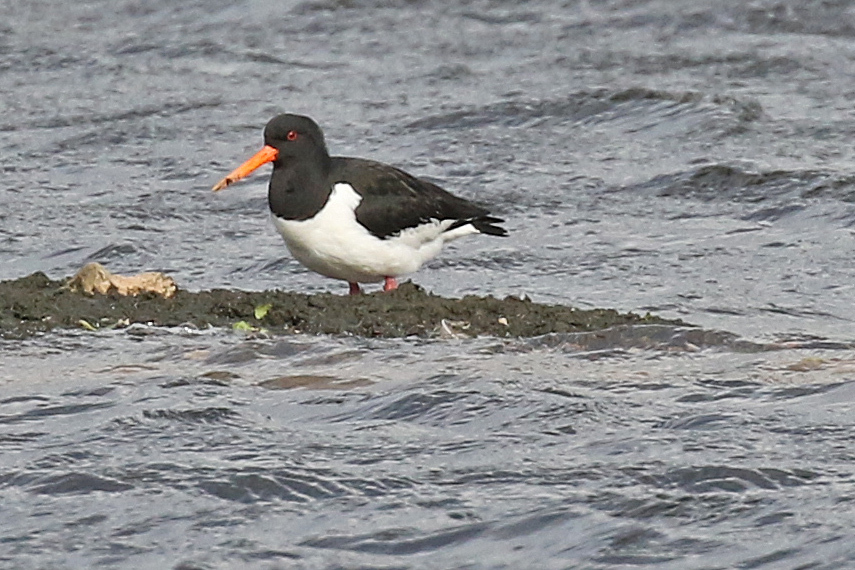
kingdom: Animalia
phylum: Chordata
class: Aves
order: Charadriiformes
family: Haematopodidae
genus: Haematopus
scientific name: Haematopus ostralegus
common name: Eurasian oystercatcher
